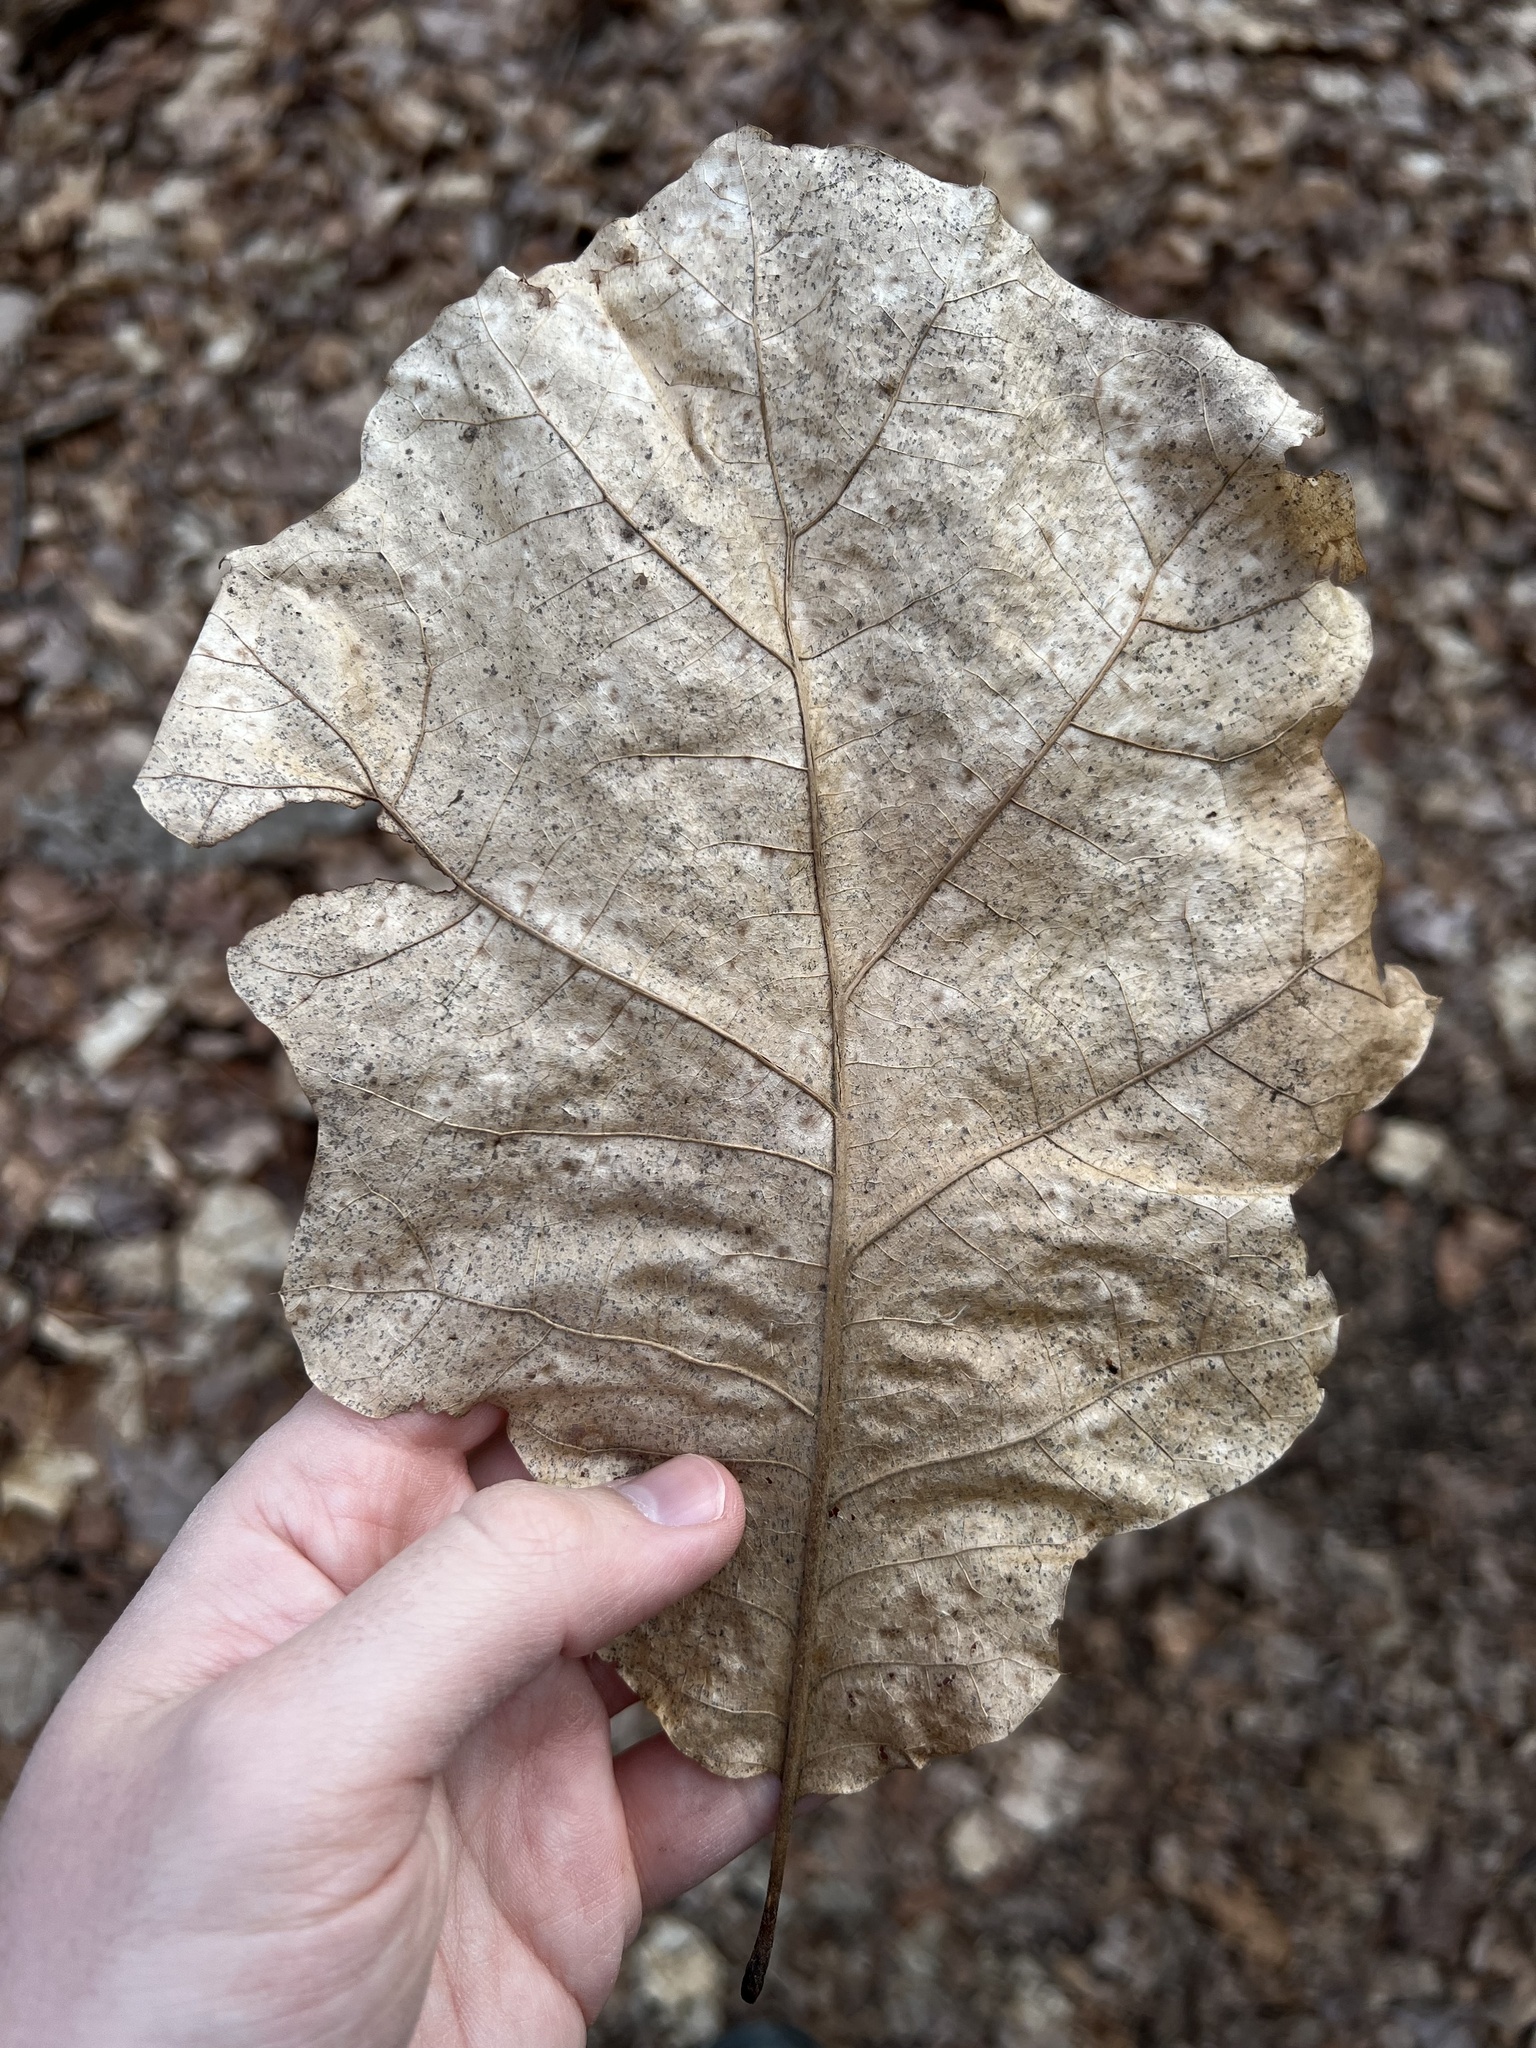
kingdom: Plantae
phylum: Tracheophyta
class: Magnoliopsida
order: Fagales
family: Fagaceae
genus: Quercus
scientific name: Quercus velutina
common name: Black oak
